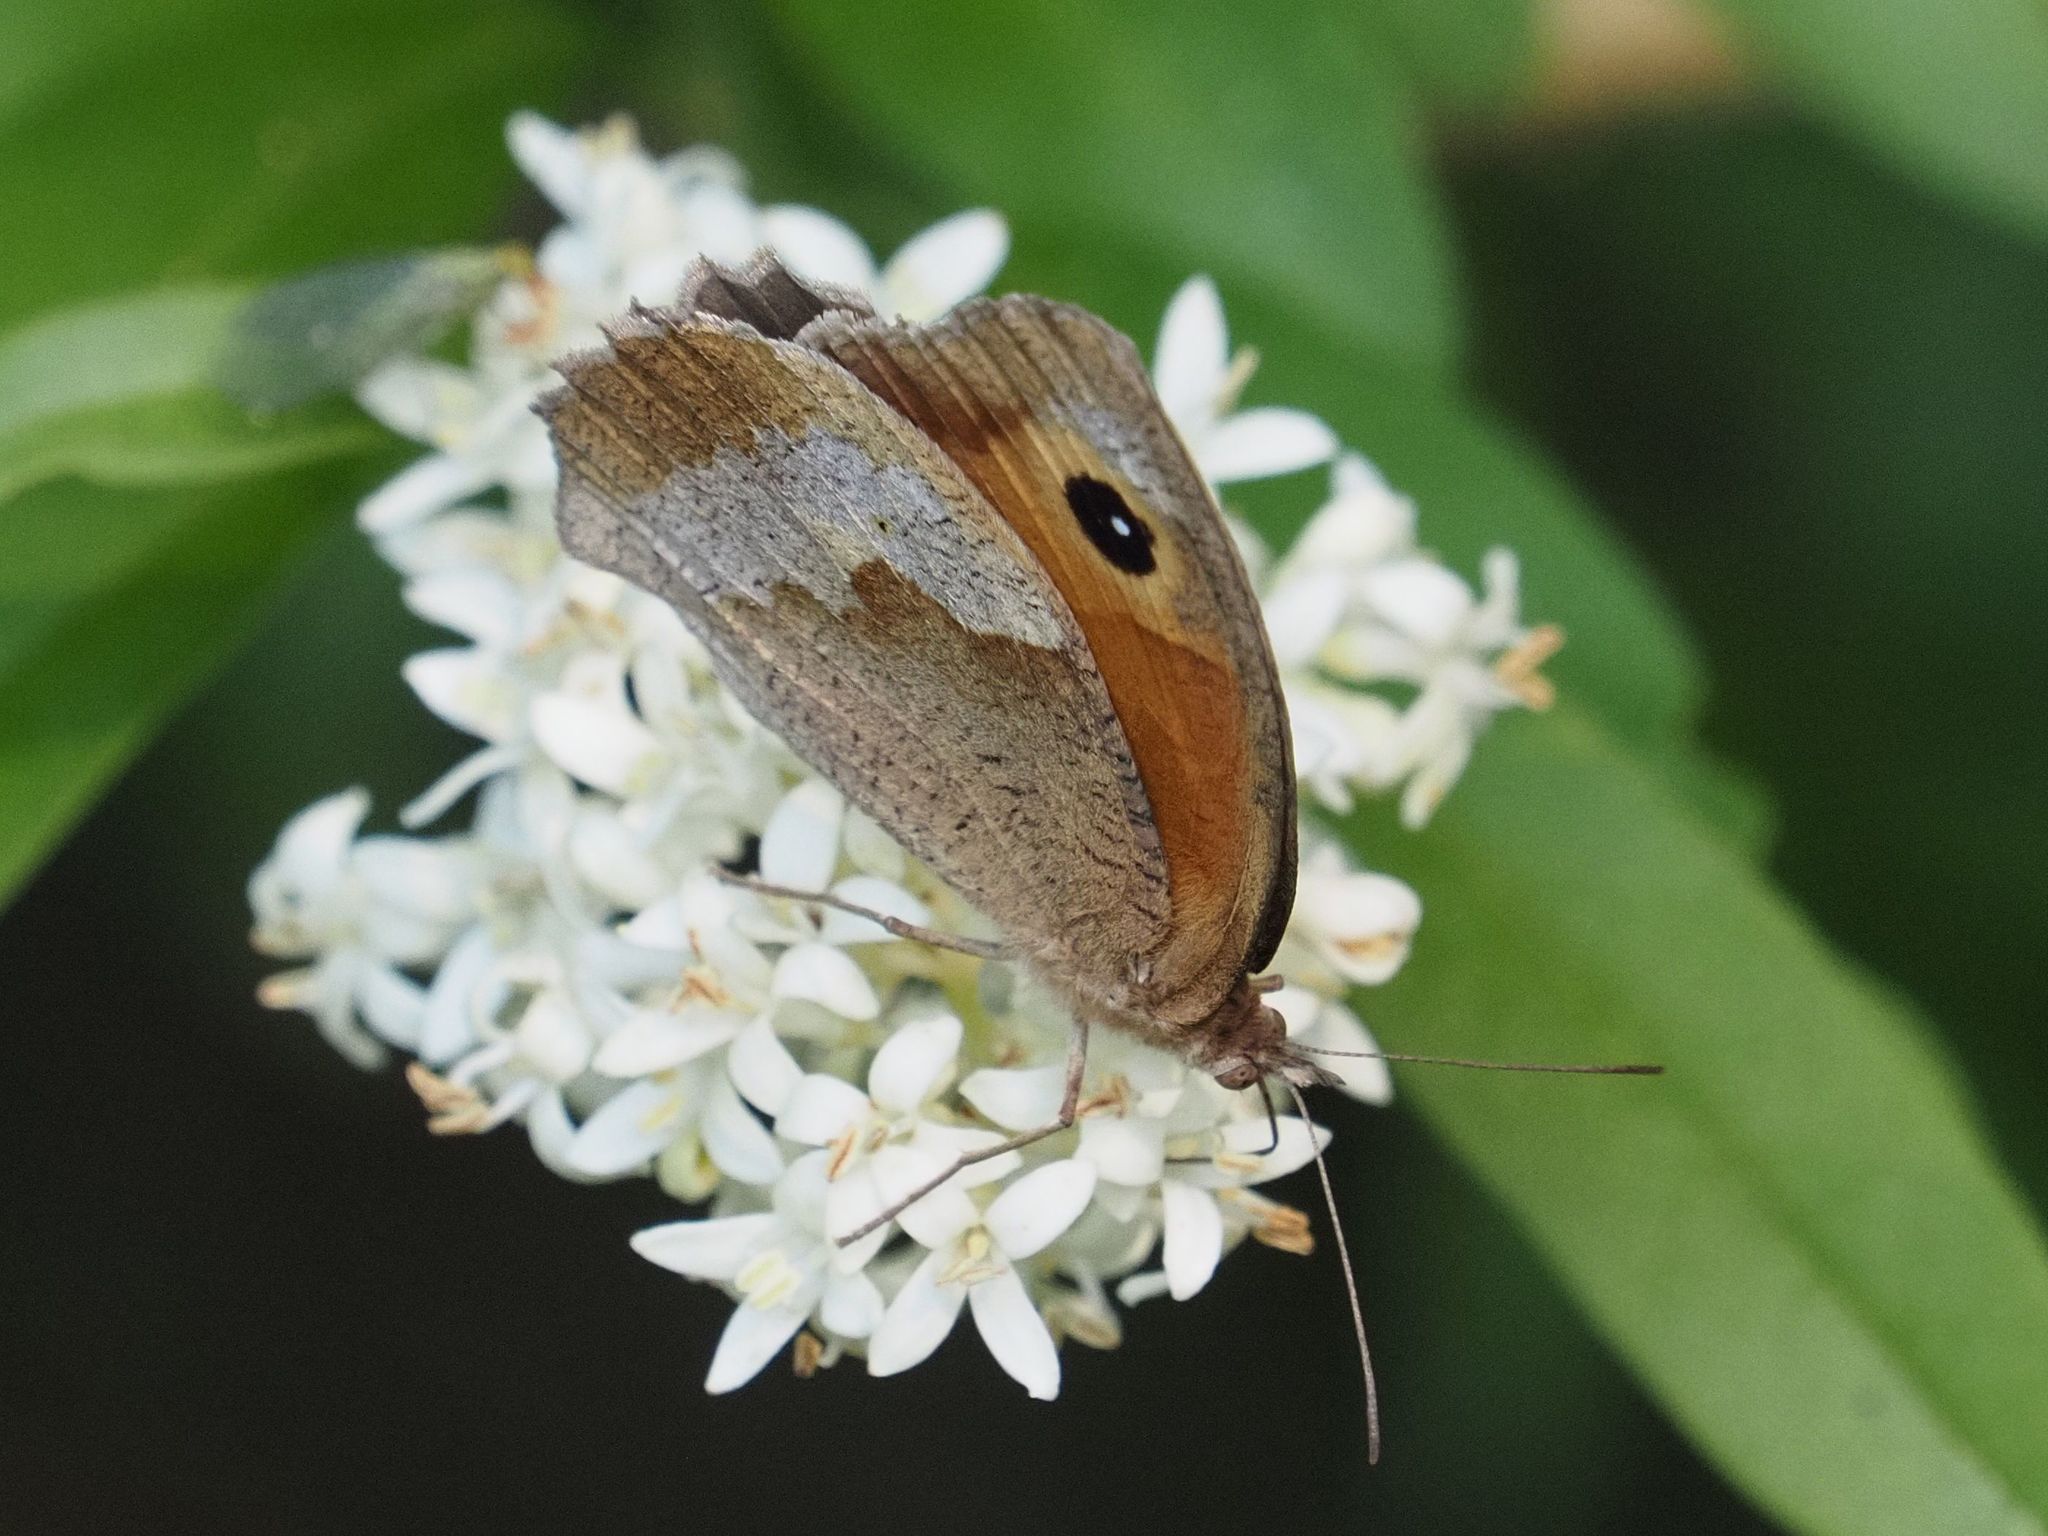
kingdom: Animalia
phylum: Arthropoda
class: Insecta
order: Lepidoptera
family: Nymphalidae
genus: Maniola
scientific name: Maniola jurtina
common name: Meadow brown
